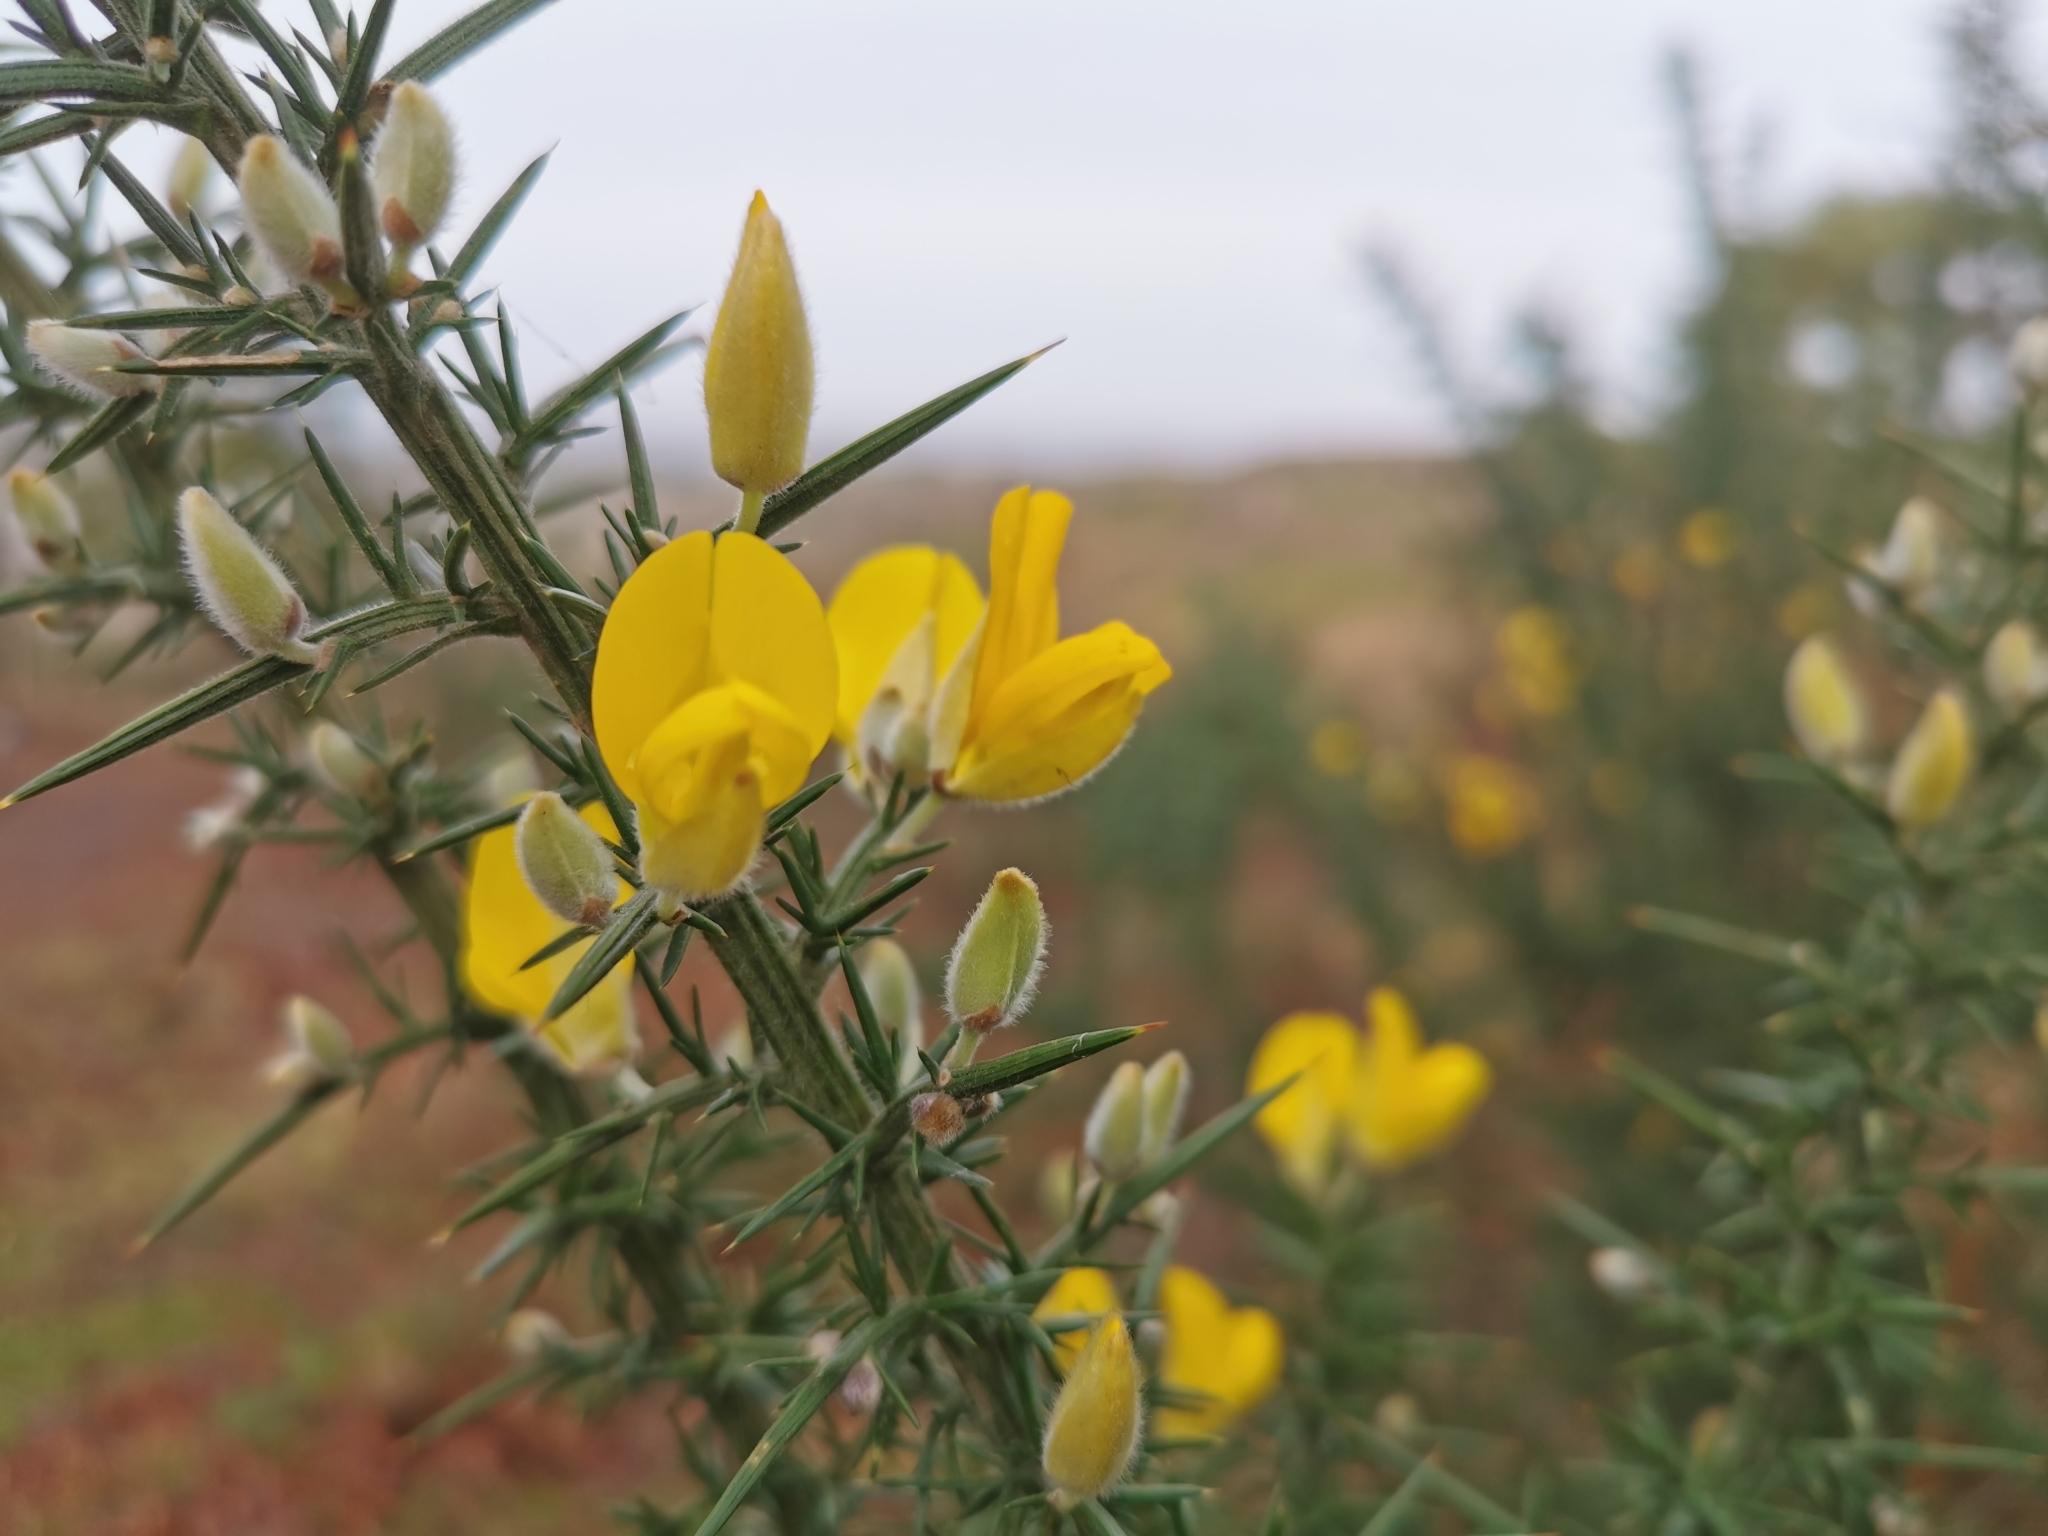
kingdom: Plantae
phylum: Tracheophyta
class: Magnoliopsida
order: Fabales
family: Fabaceae
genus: Ulex
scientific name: Ulex europaeus
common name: Common gorse
